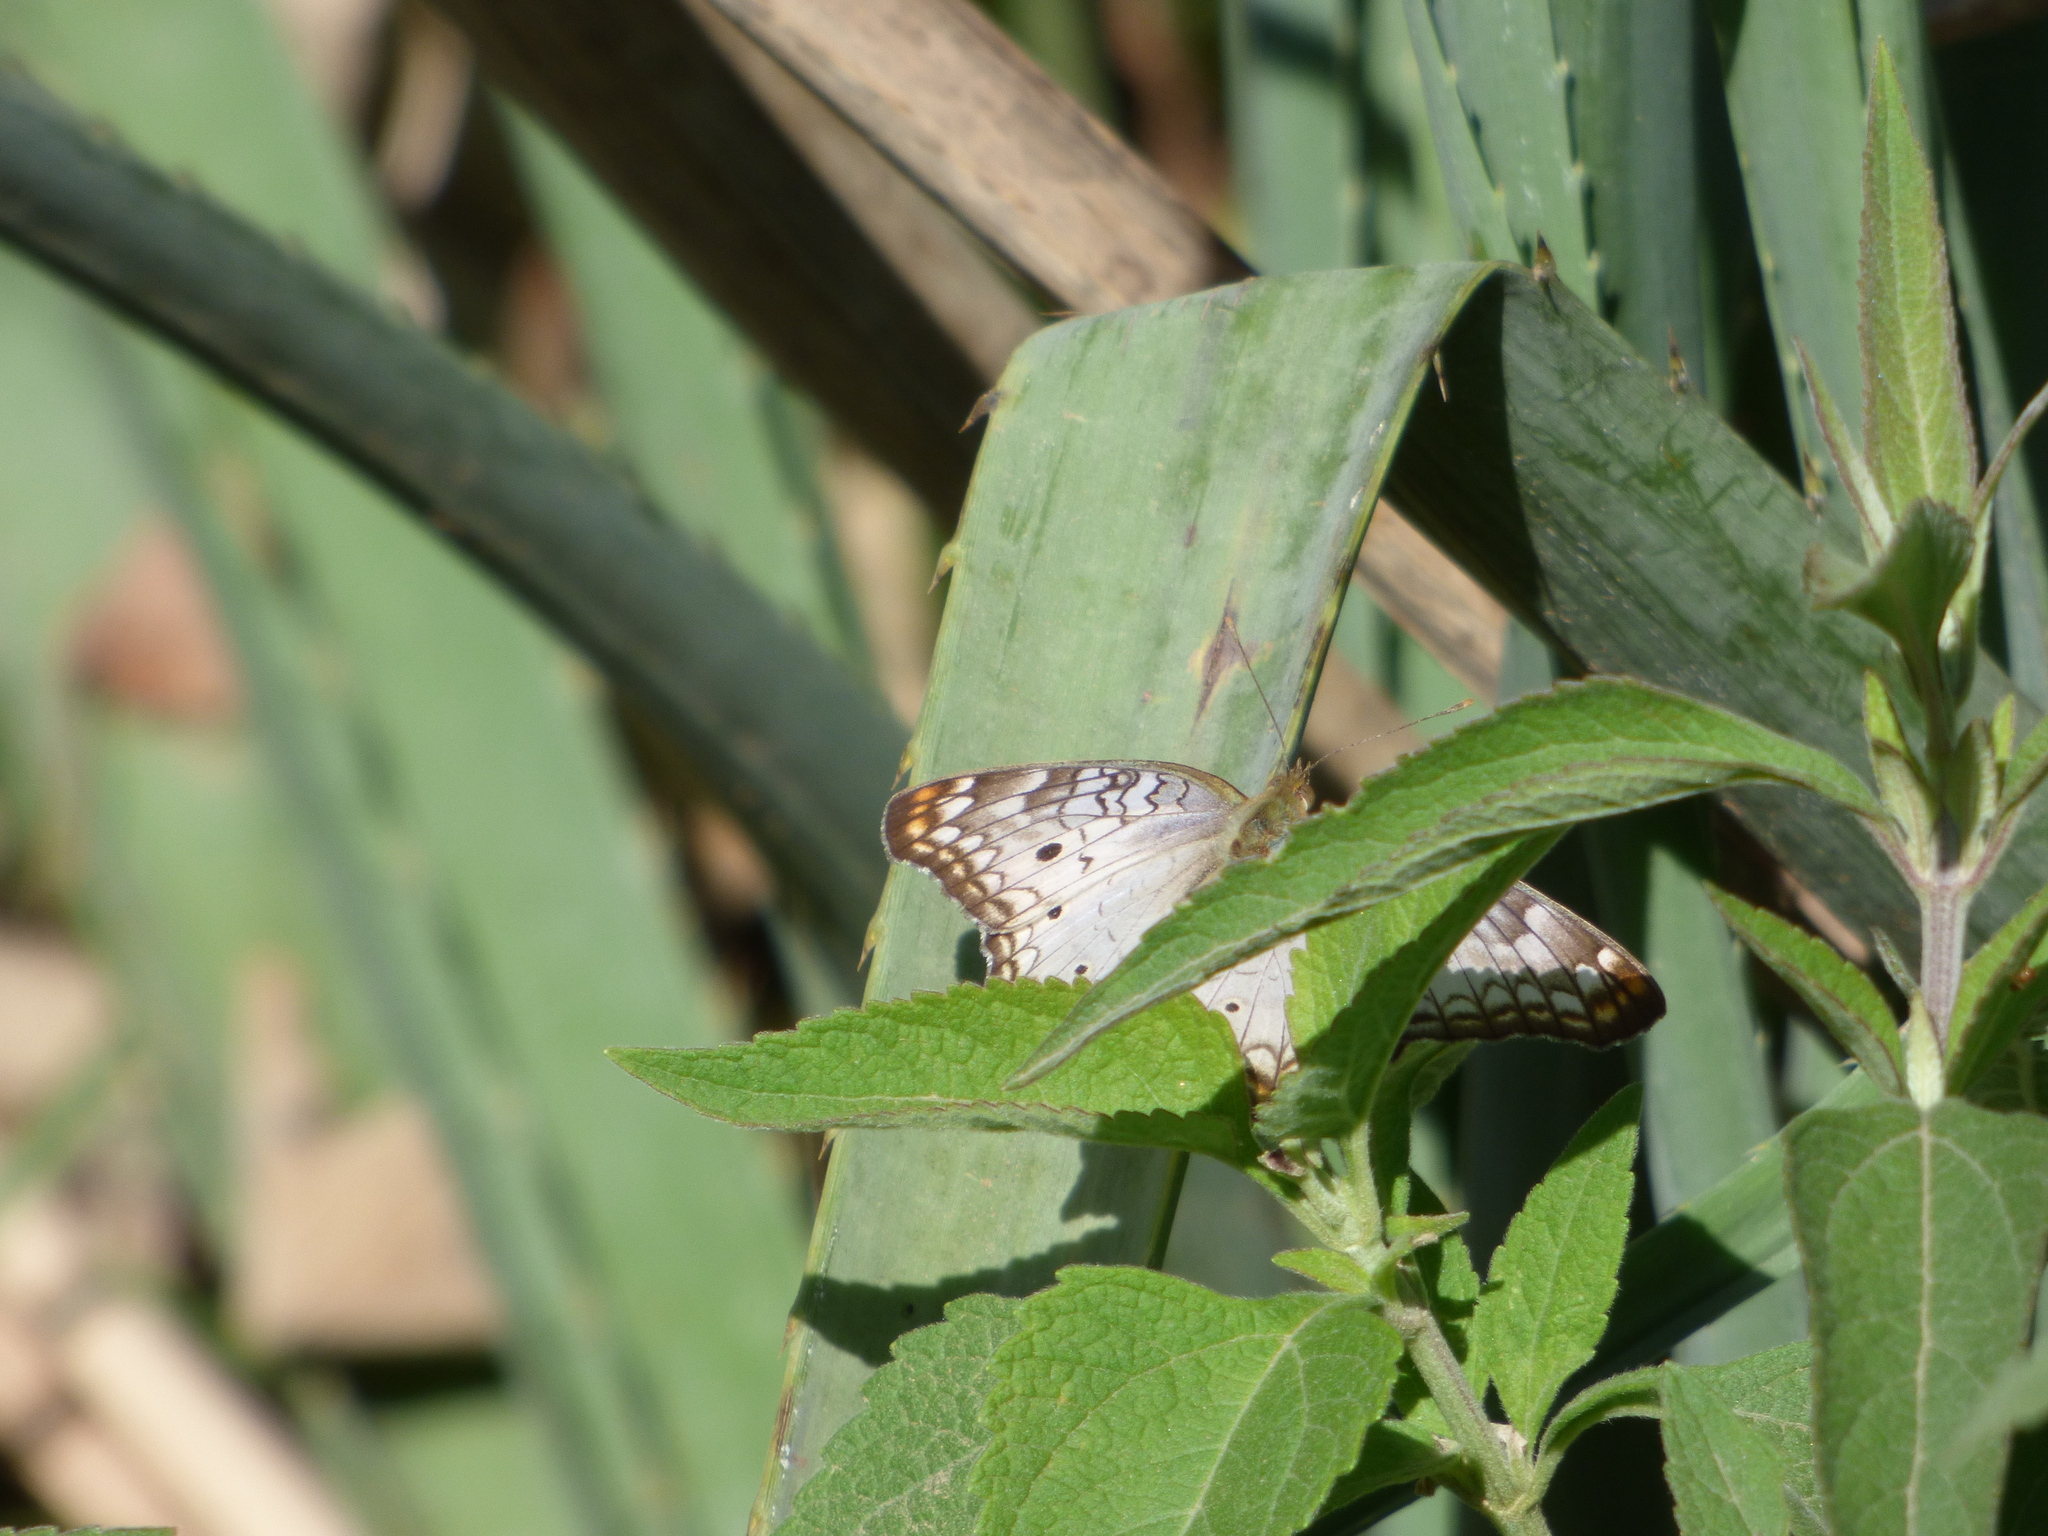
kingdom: Animalia
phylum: Arthropoda
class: Insecta
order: Lepidoptera
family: Nymphalidae
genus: Anartia
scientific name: Anartia jatrophae
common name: White peacock
